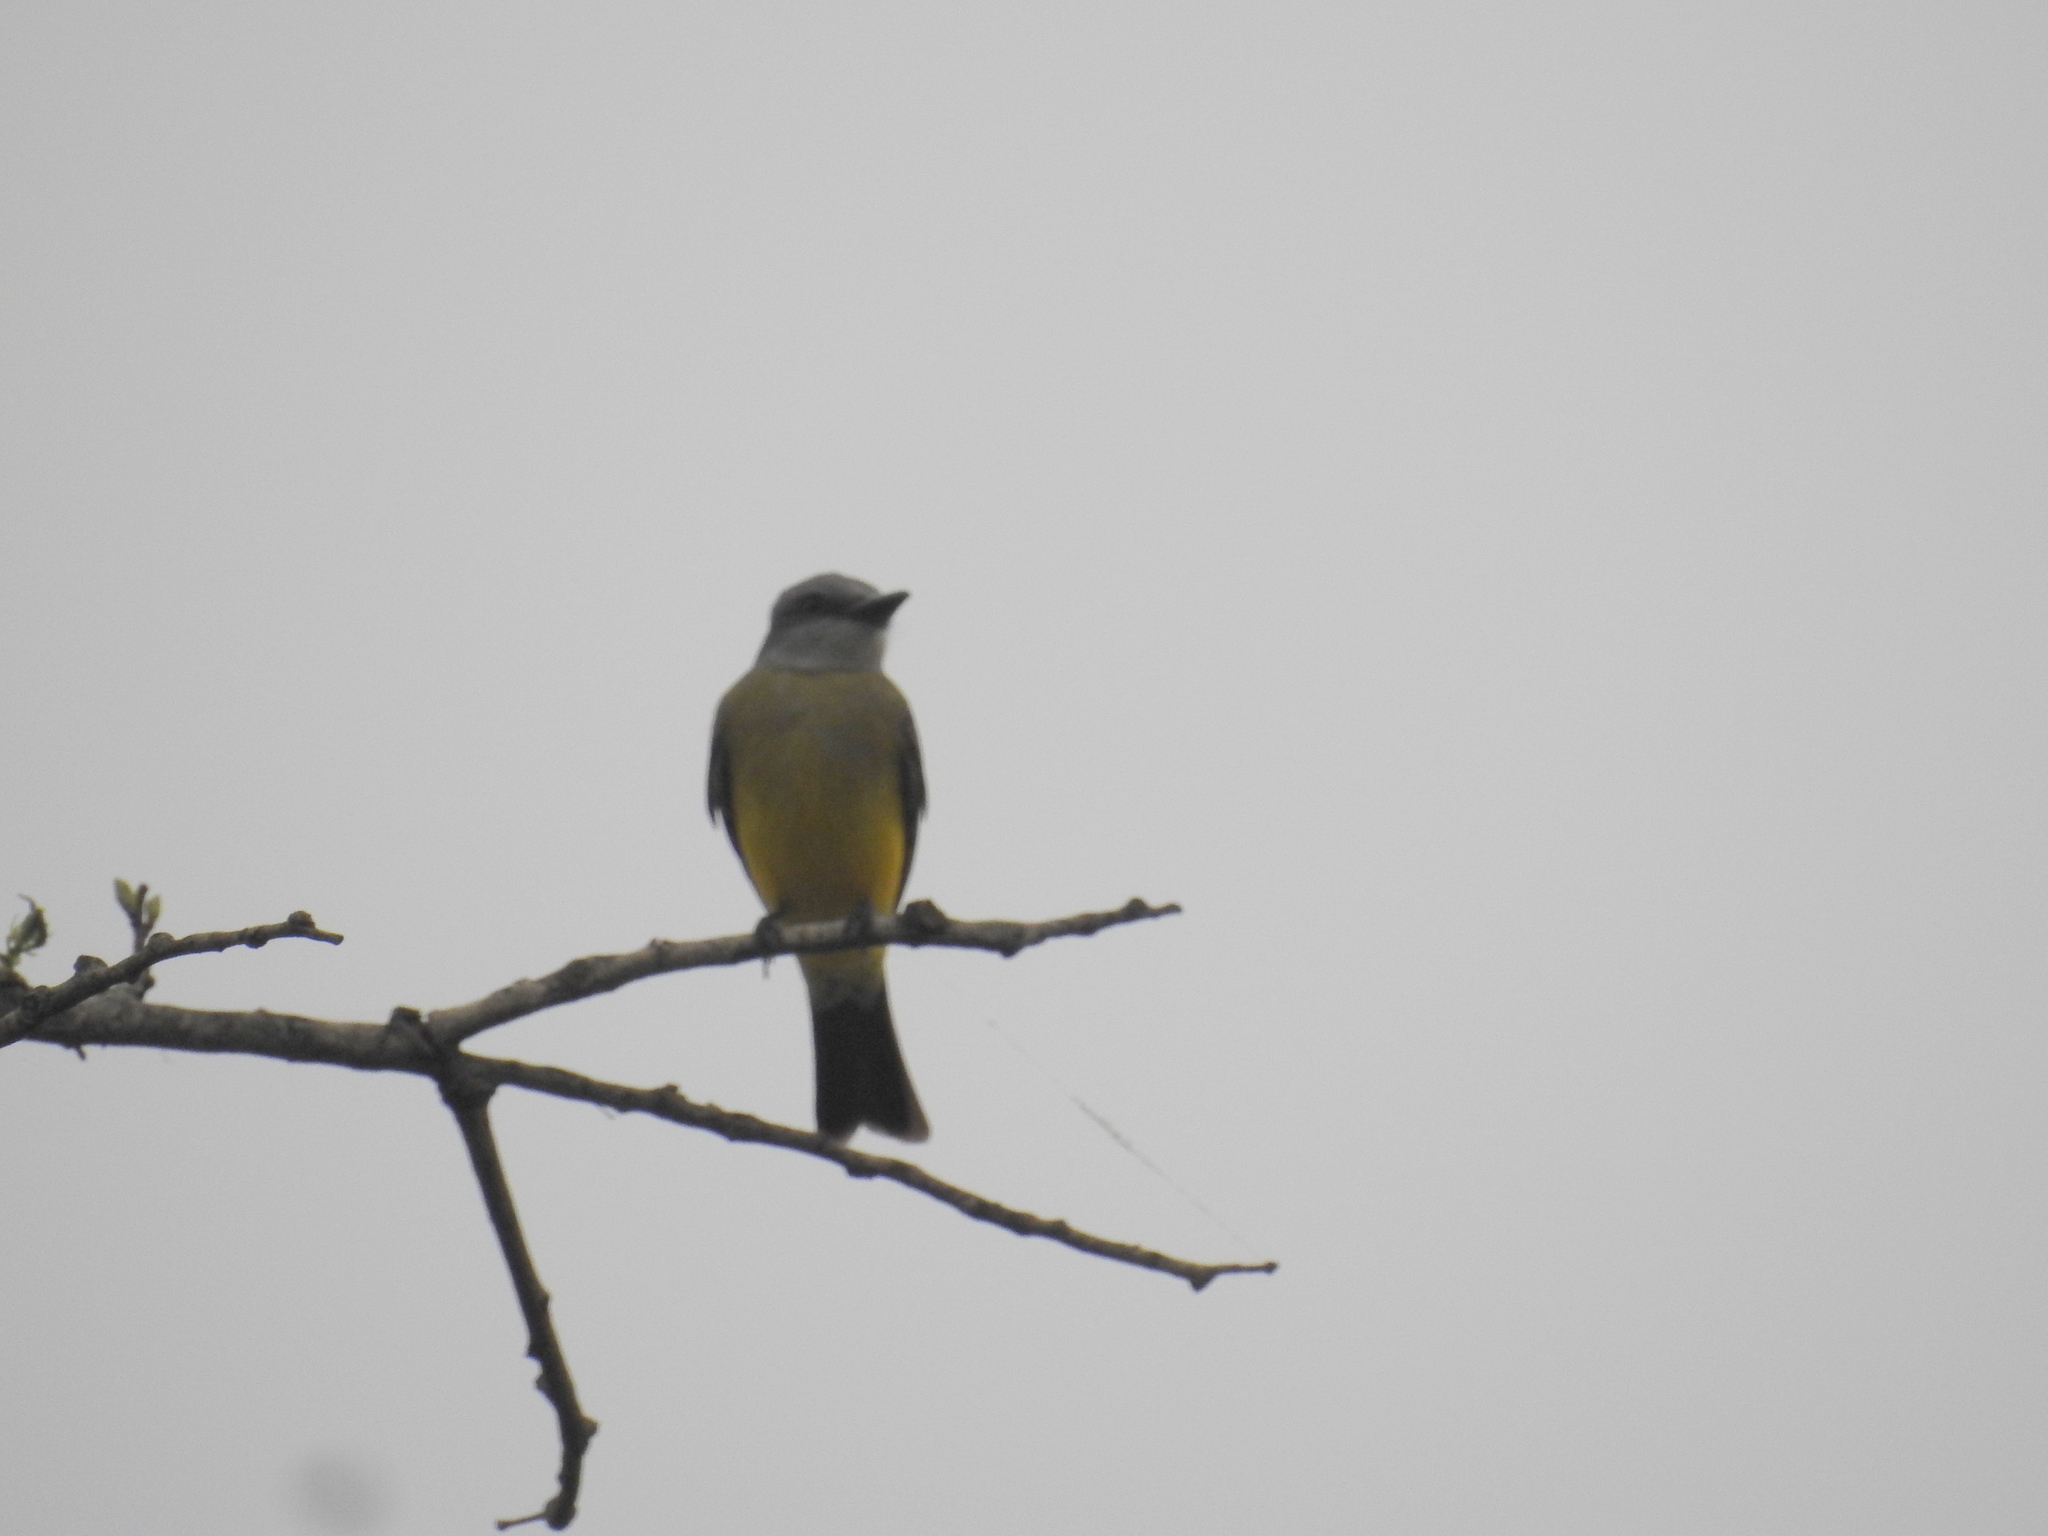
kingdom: Animalia
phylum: Chordata
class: Aves
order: Passeriformes
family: Tyrannidae
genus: Tyrannus
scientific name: Tyrannus melancholicus
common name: Tropical kingbird
